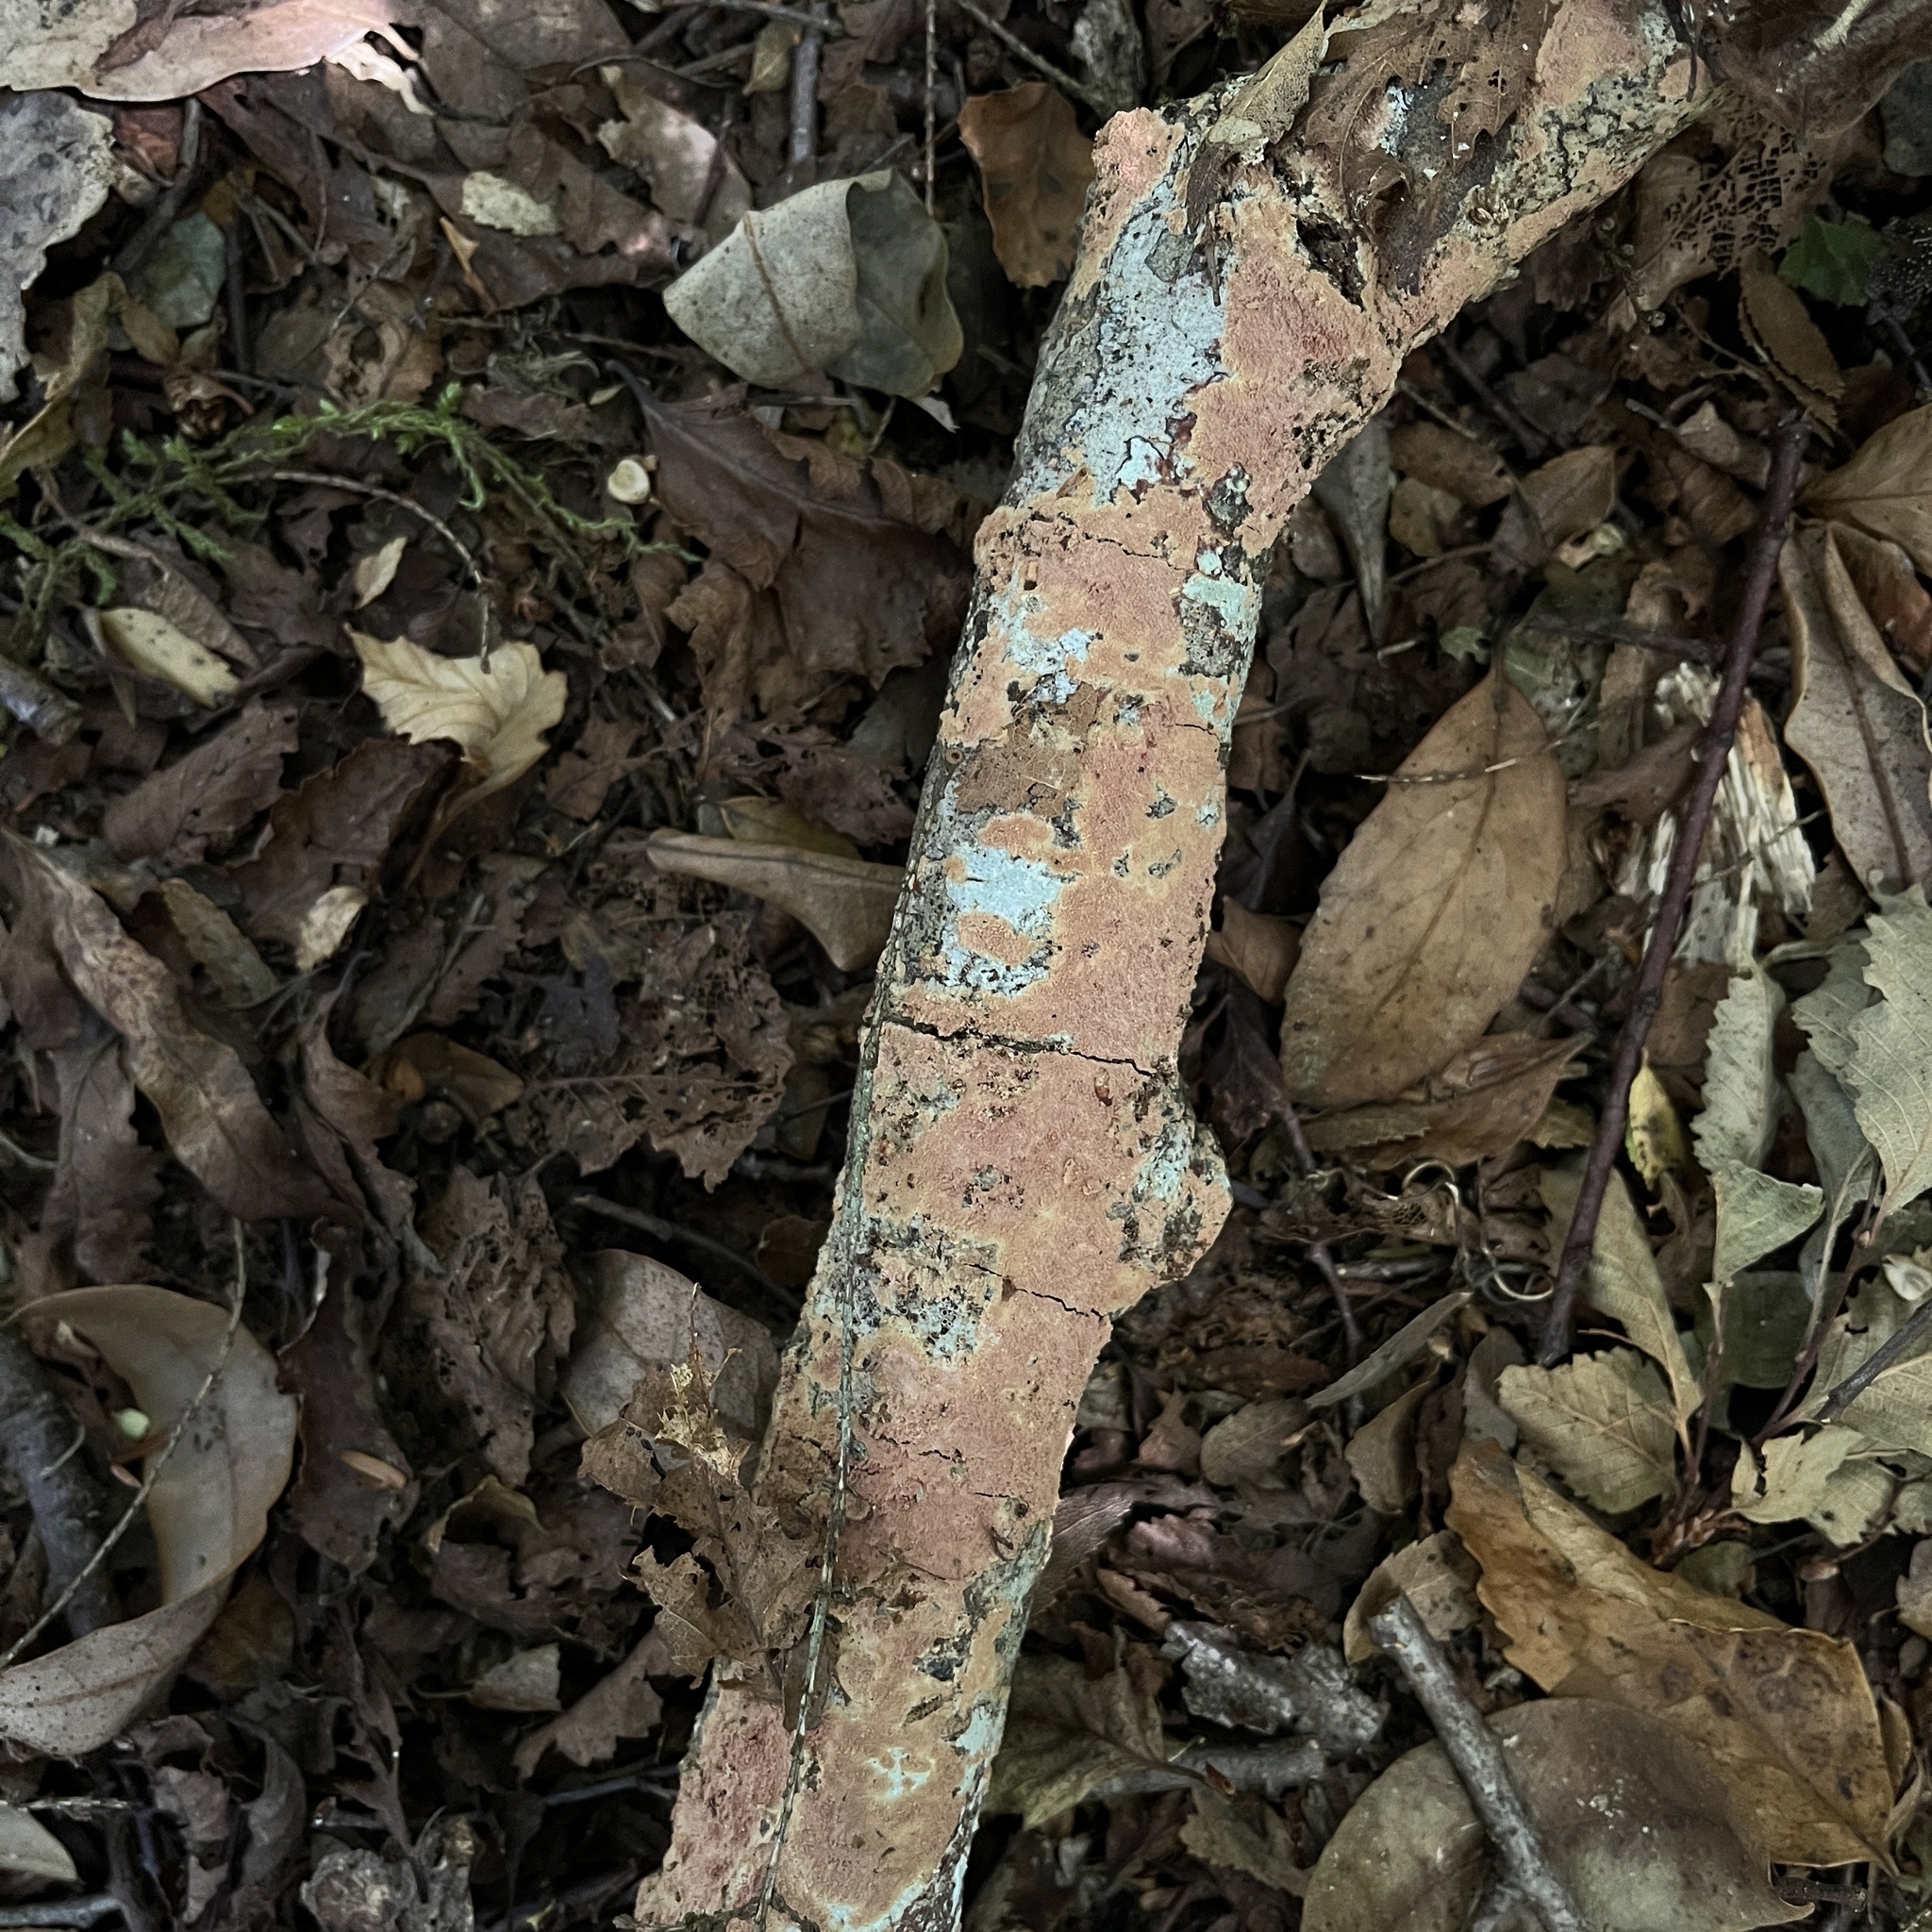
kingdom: Fungi
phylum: Basidiomycota
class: Agaricomycetes
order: Hymenochaetales
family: Schizoporaceae
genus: Xylodon
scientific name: Xylodon magallanesii
